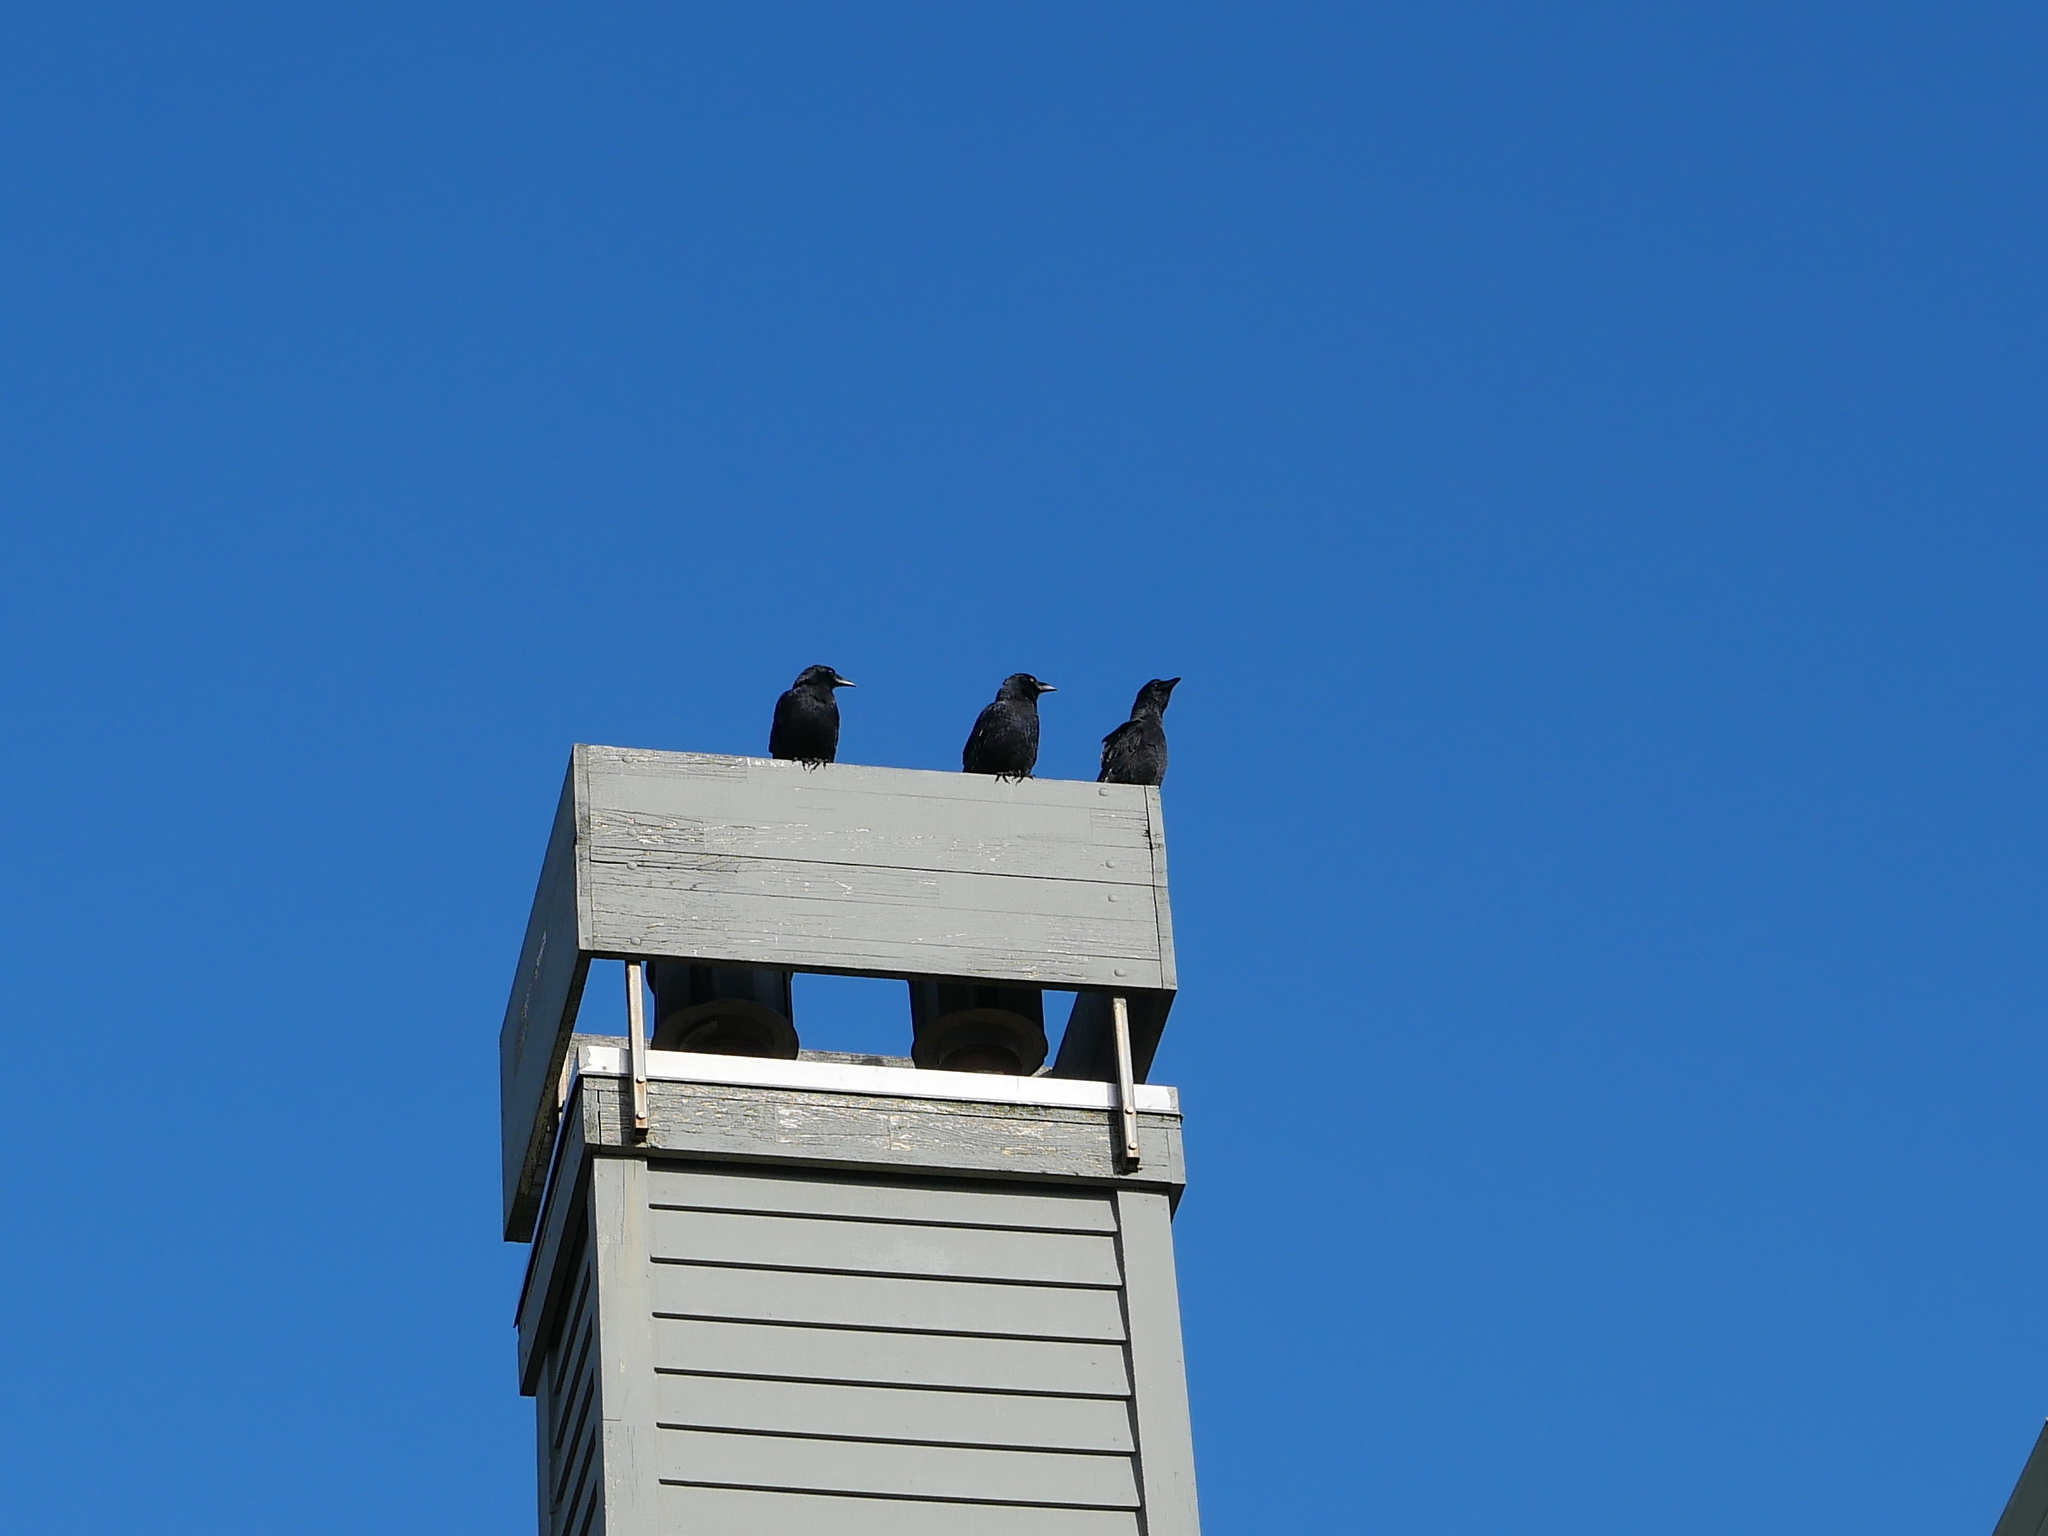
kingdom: Animalia
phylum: Chordata
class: Aves
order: Passeriformes
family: Corvidae
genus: Corvus
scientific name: Corvus brachyrhynchos
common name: American crow
